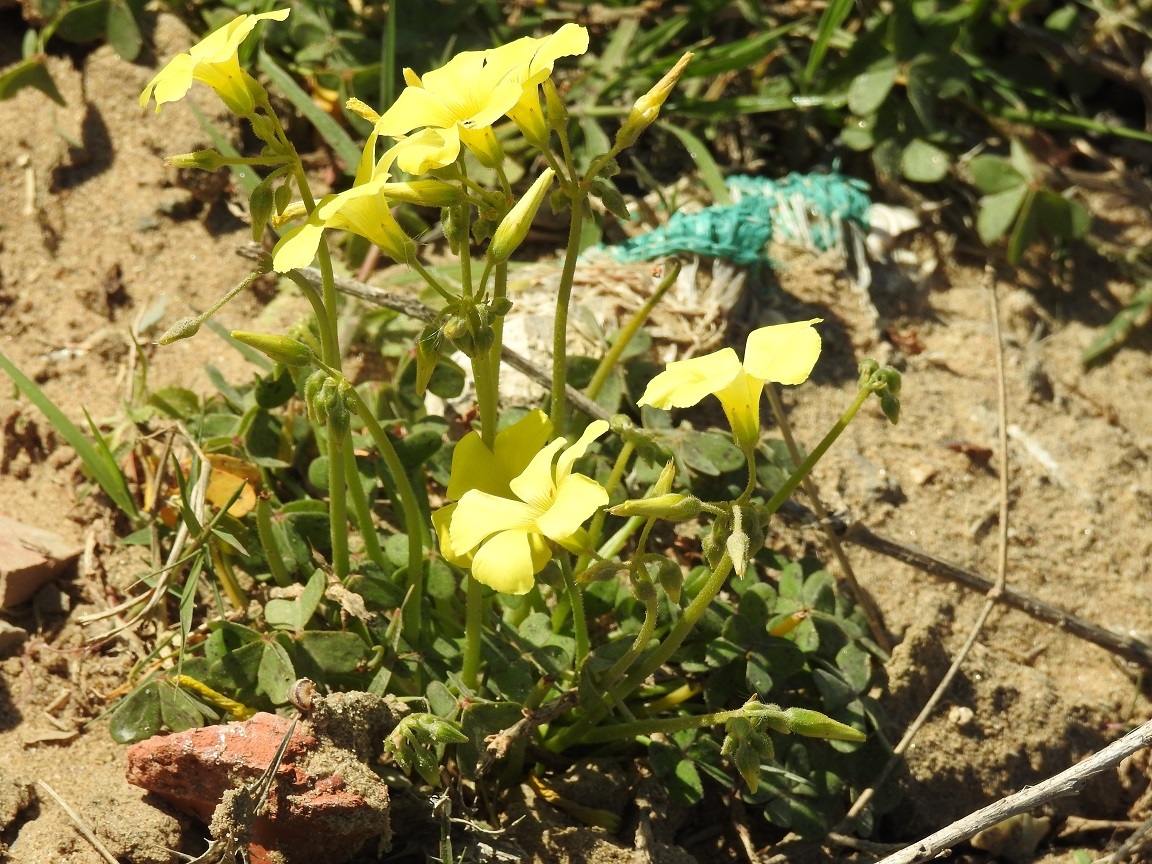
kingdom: Plantae
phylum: Tracheophyta
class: Magnoliopsida
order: Oxalidales
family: Oxalidaceae
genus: Oxalis
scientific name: Oxalis pes-caprae
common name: Bermuda-buttercup
